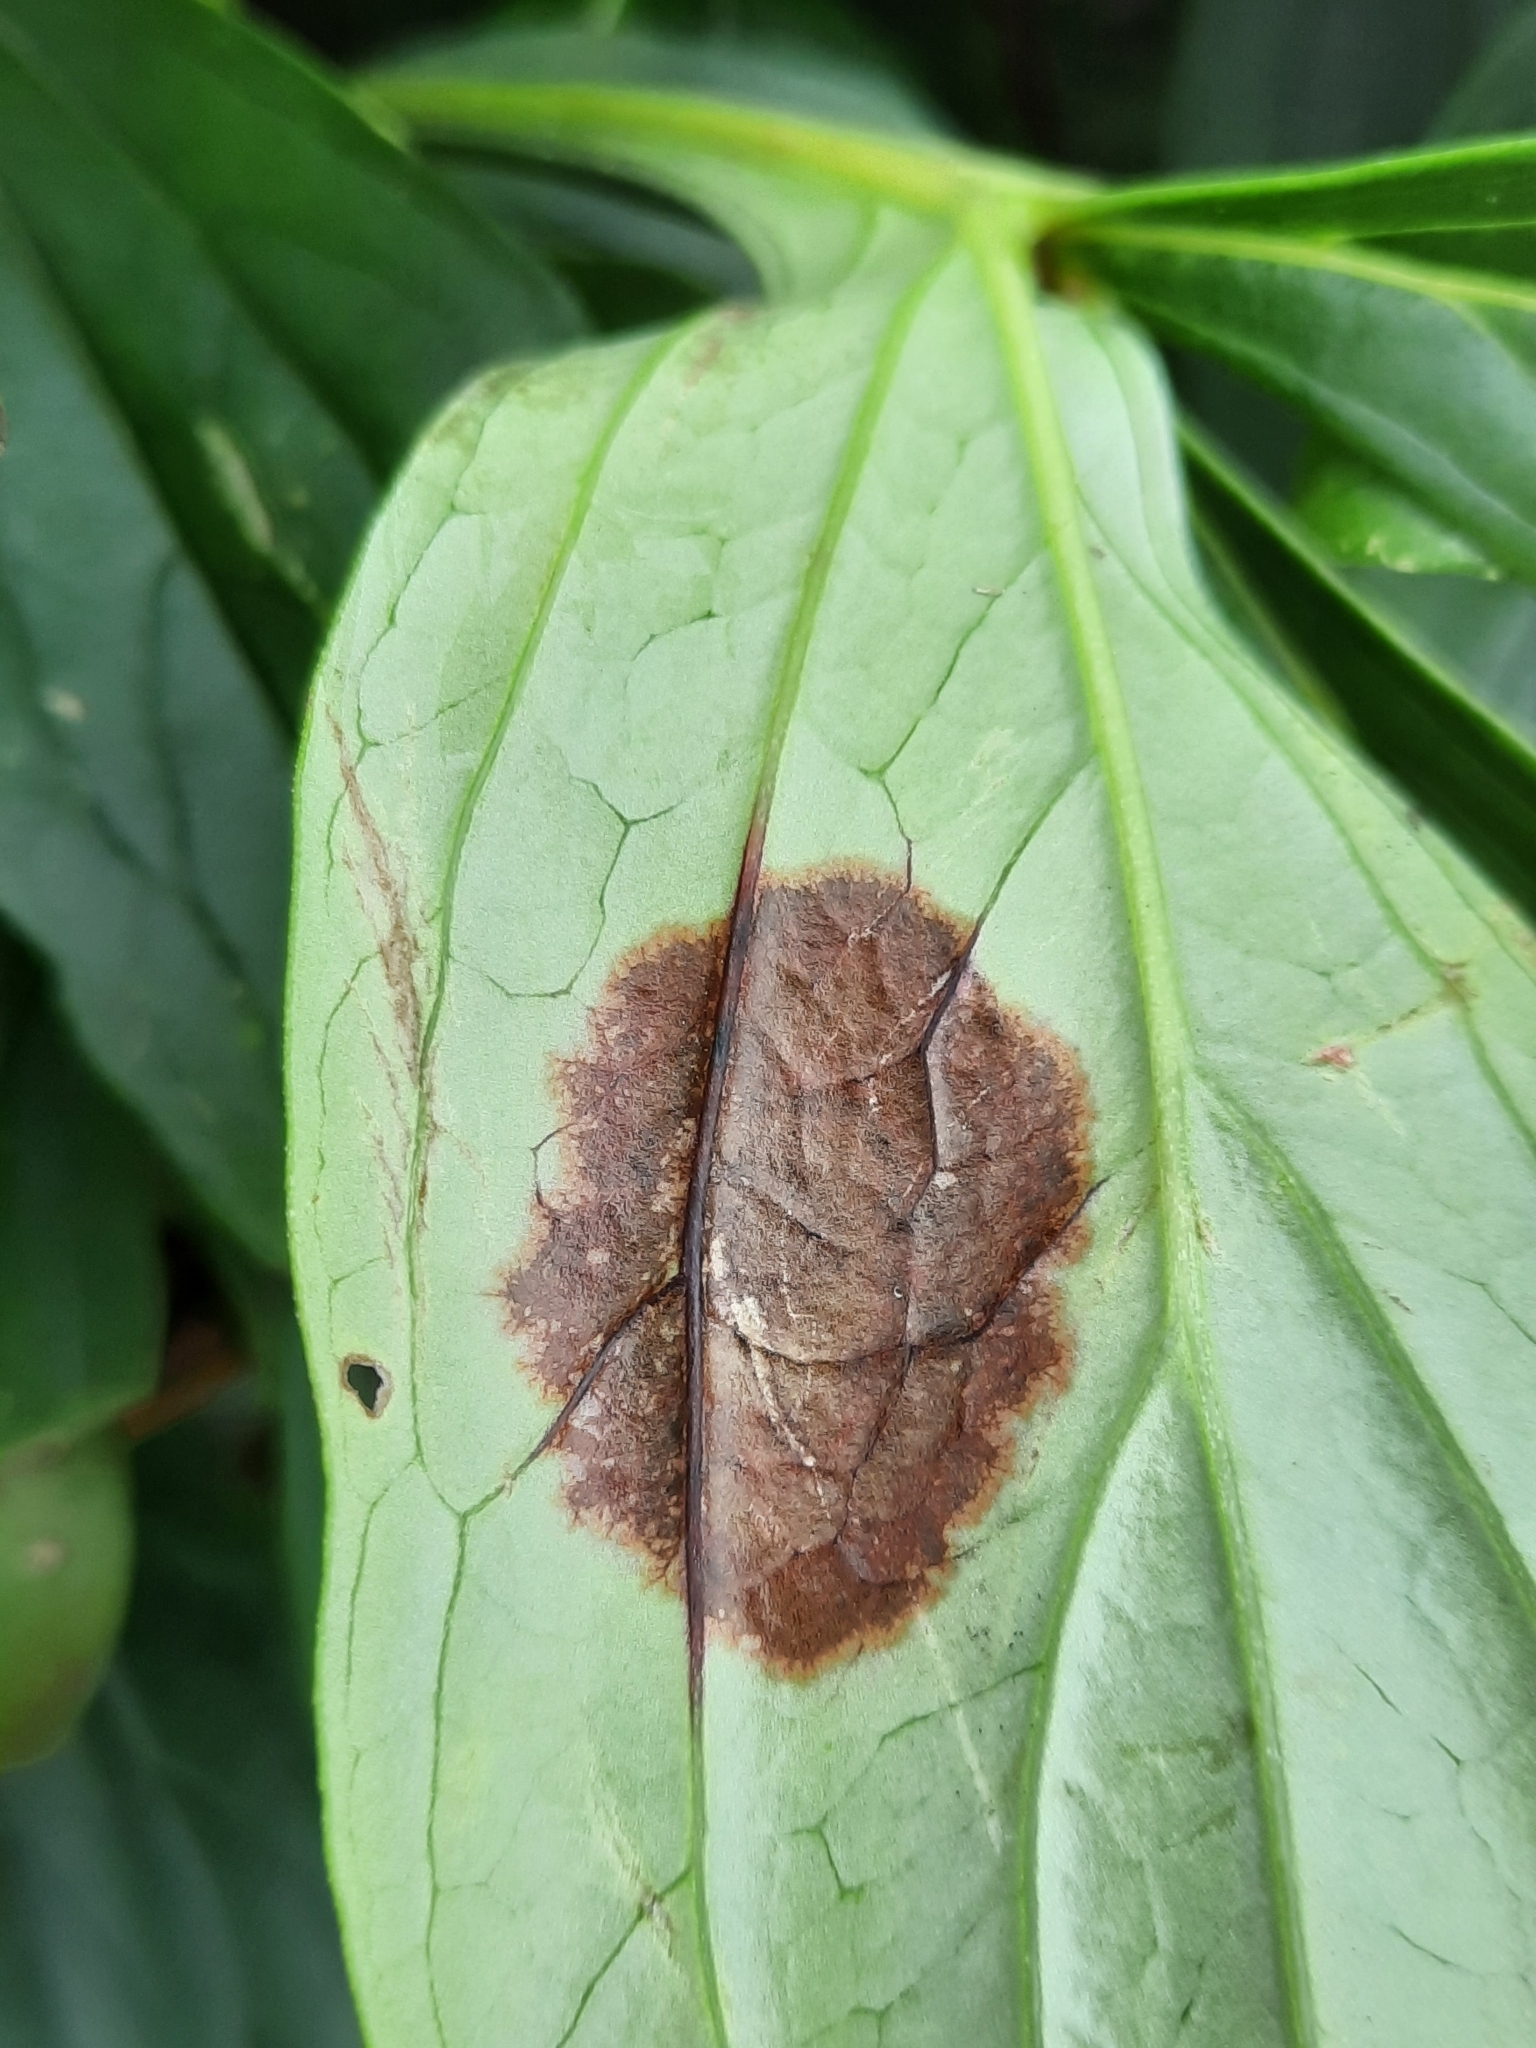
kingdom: Fungi
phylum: Ascomycota
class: Dothideomycetes
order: Capnodiales
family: Davidiellaceae
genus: Dichocladosporium
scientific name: Dichocladosporium chlorocephalum
